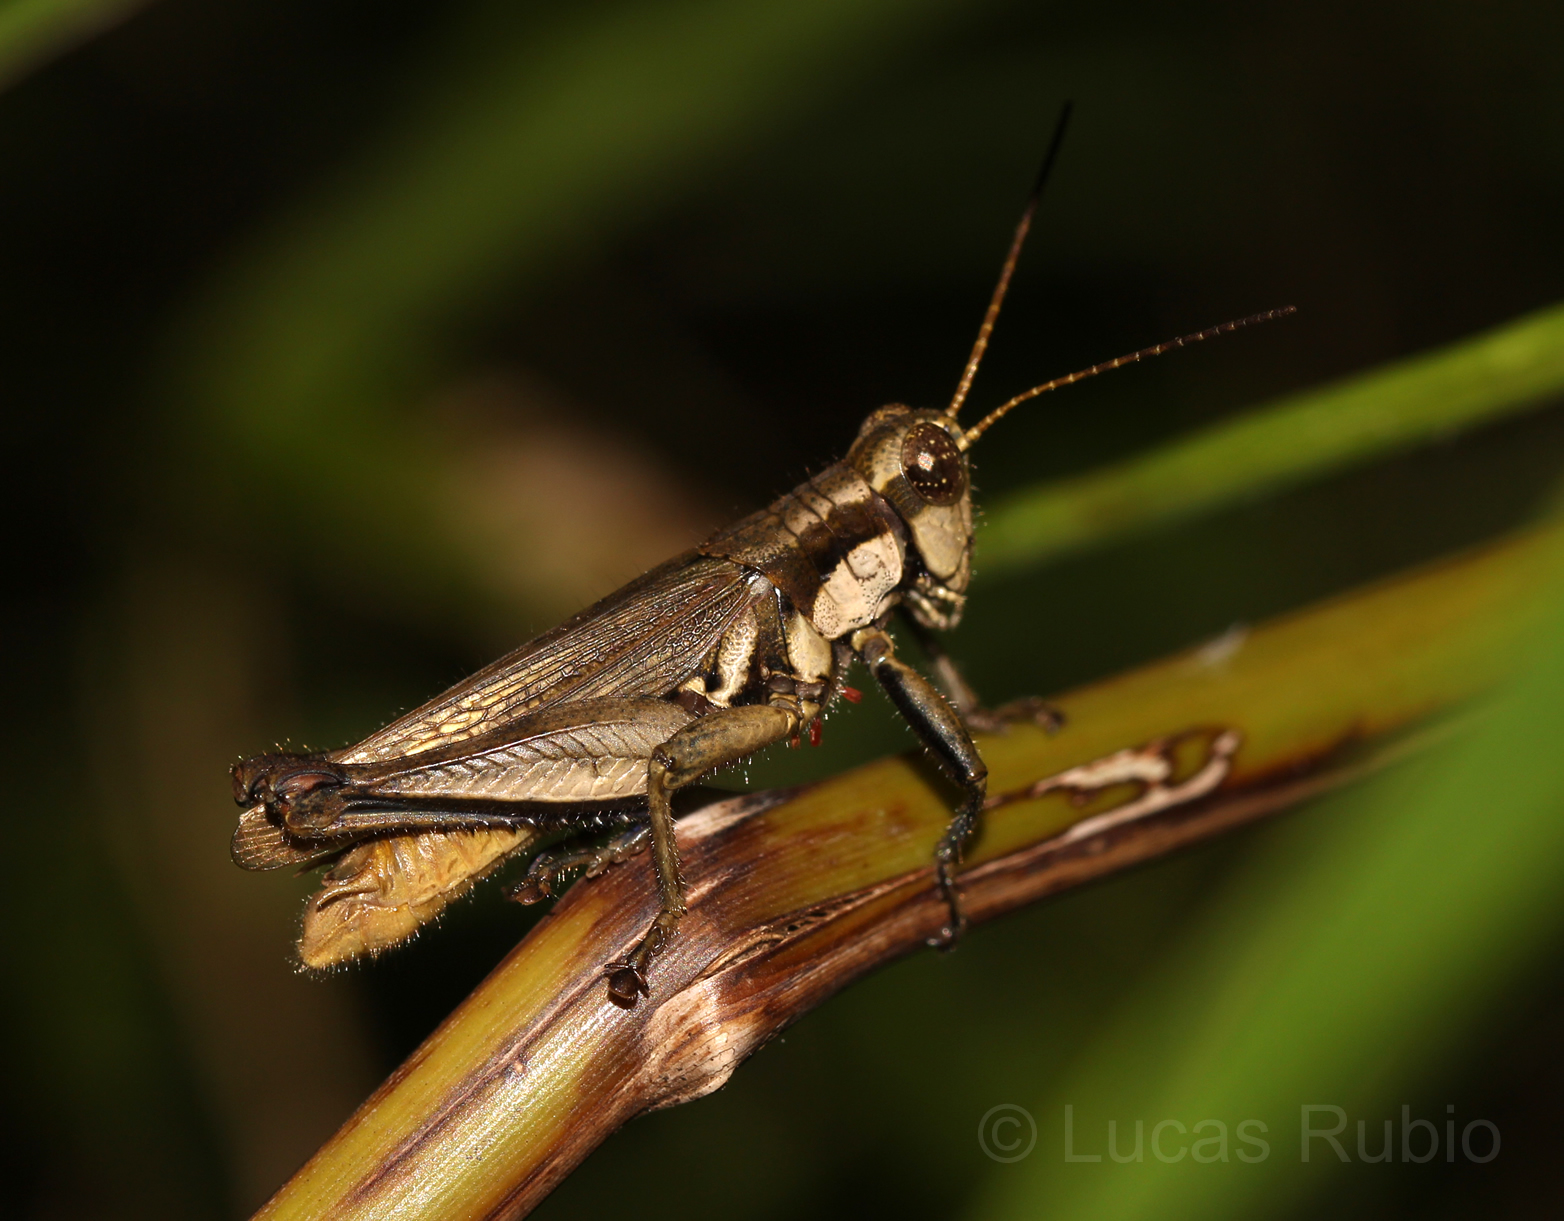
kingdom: Animalia
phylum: Arthropoda
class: Insecta
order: Orthoptera
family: Acrididae
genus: Ronderosia
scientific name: Ronderosia bergii
